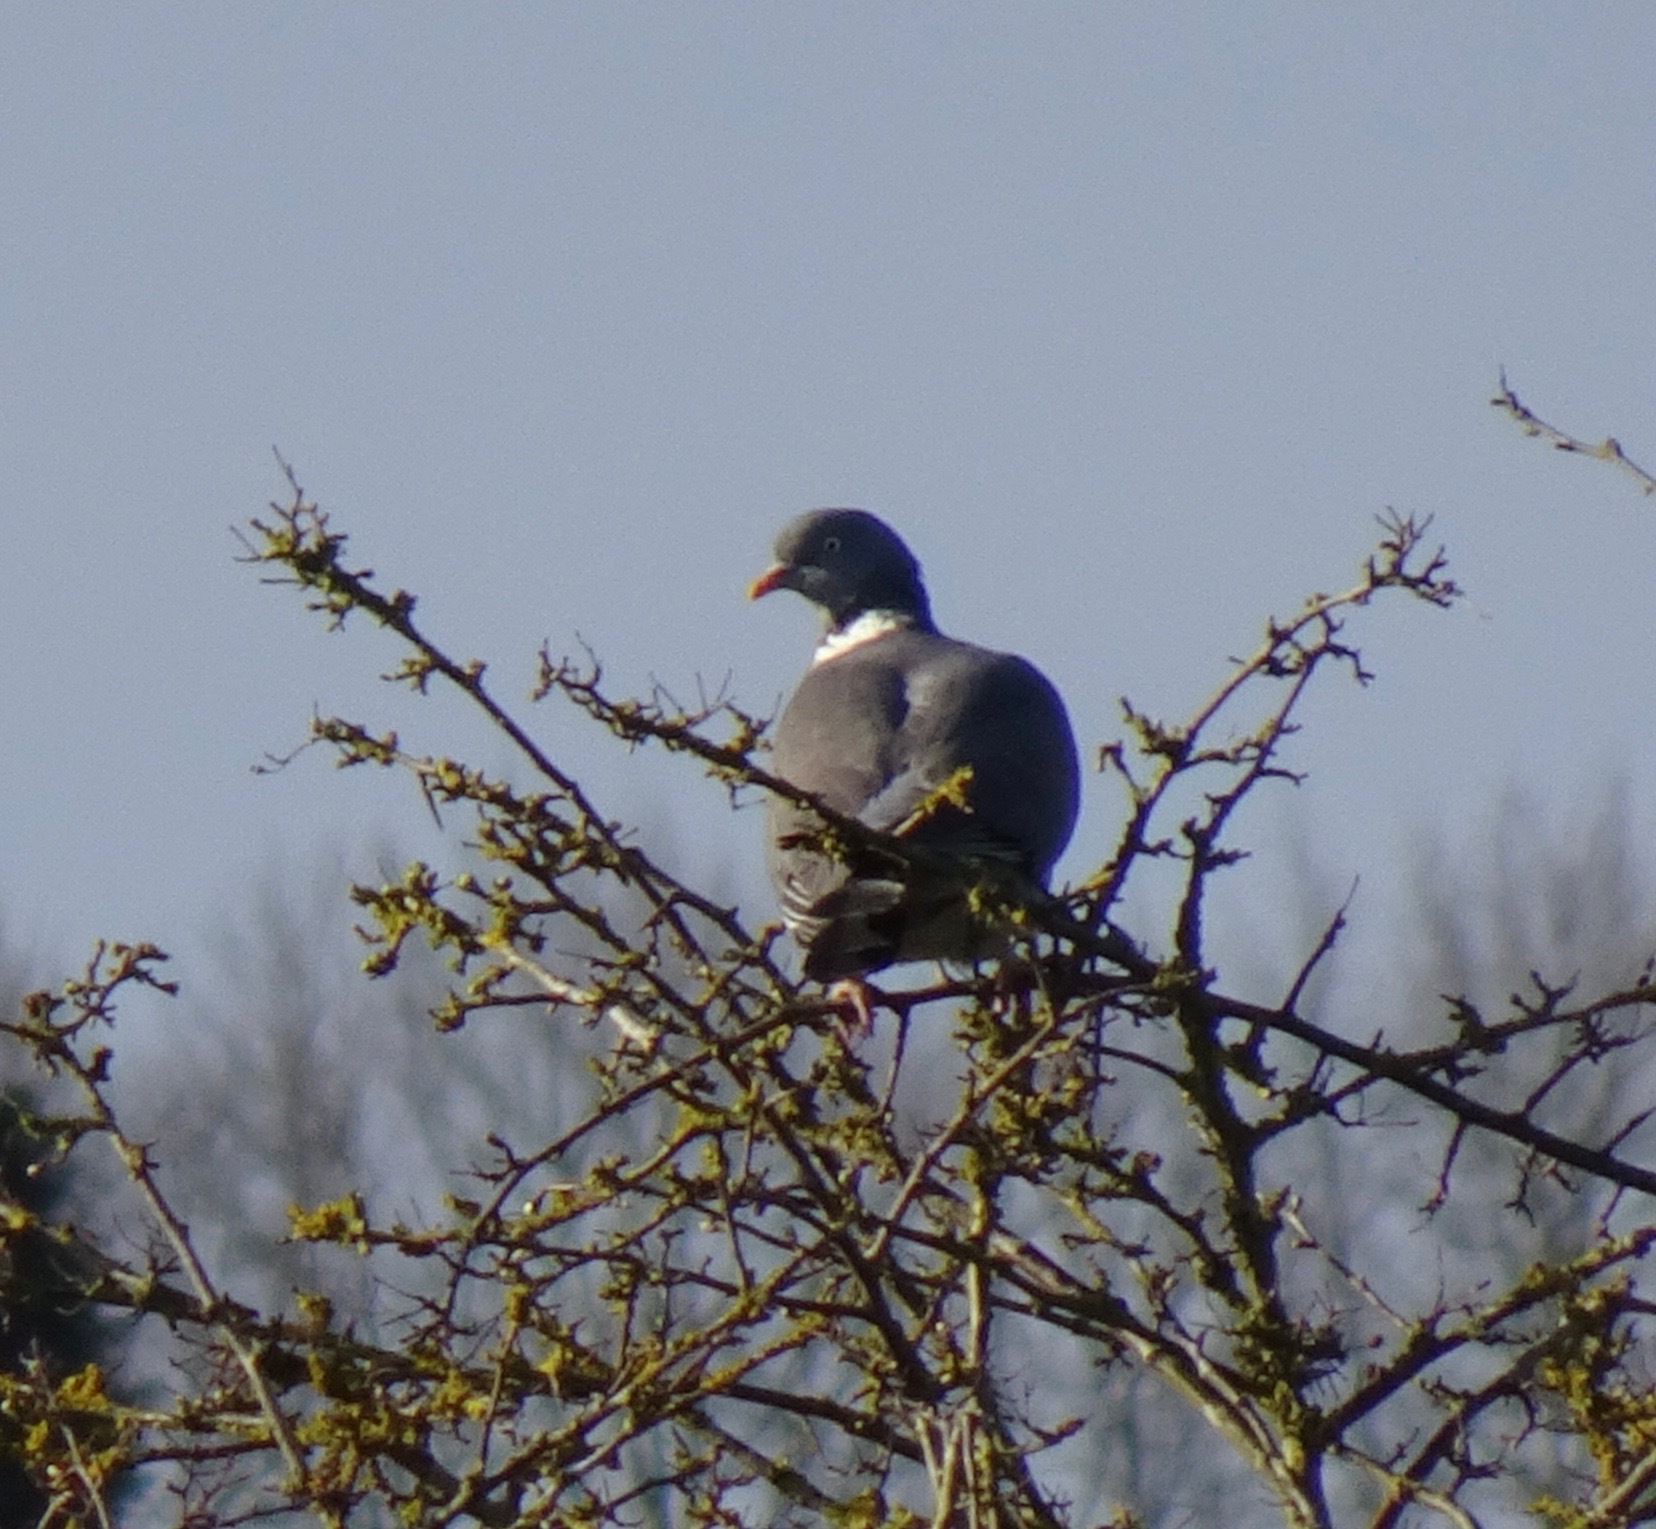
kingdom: Animalia
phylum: Chordata
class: Aves
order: Columbiformes
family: Columbidae
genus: Columba
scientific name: Columba palumbus
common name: Common wood pigeon
